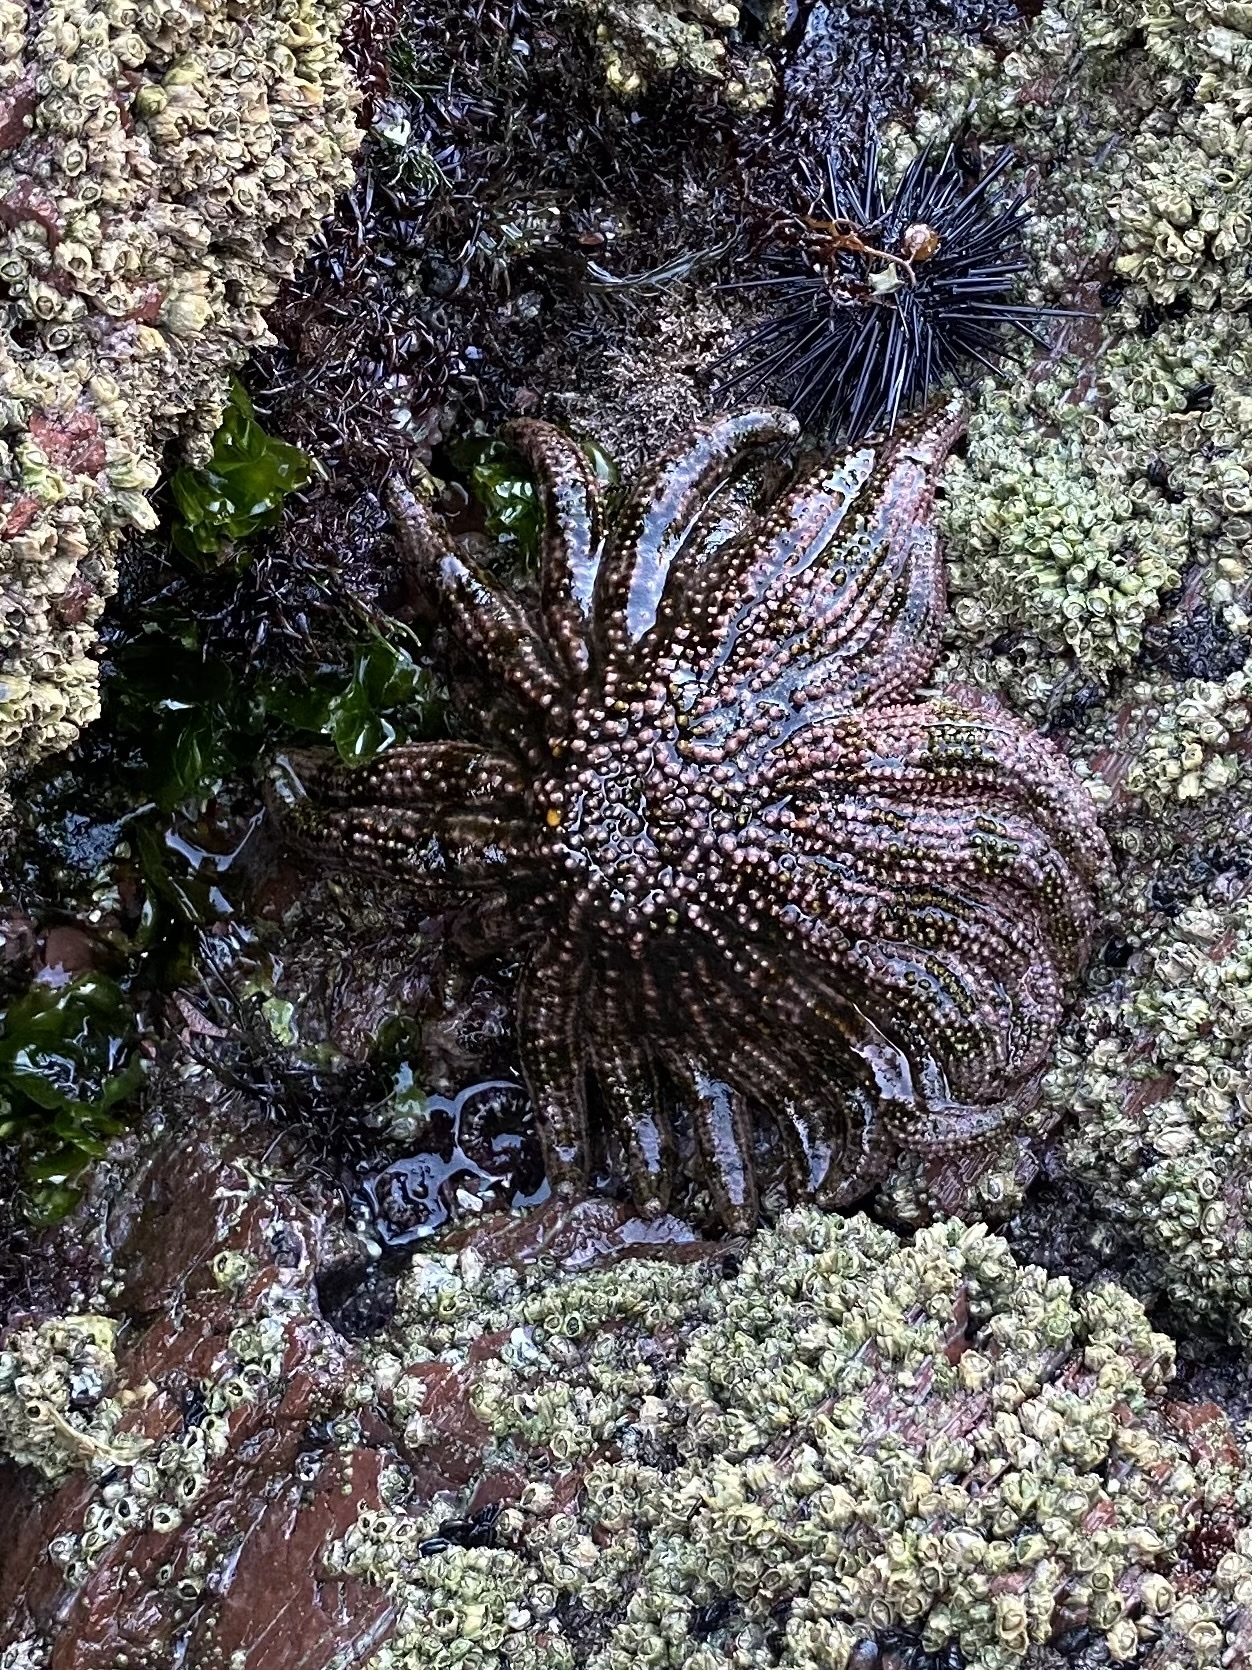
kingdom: Animalia
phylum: Echinodermata
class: Asteroidea
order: Forcipulatida
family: Heliasteridae
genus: Heliaster
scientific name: Heliaster kubiniji
